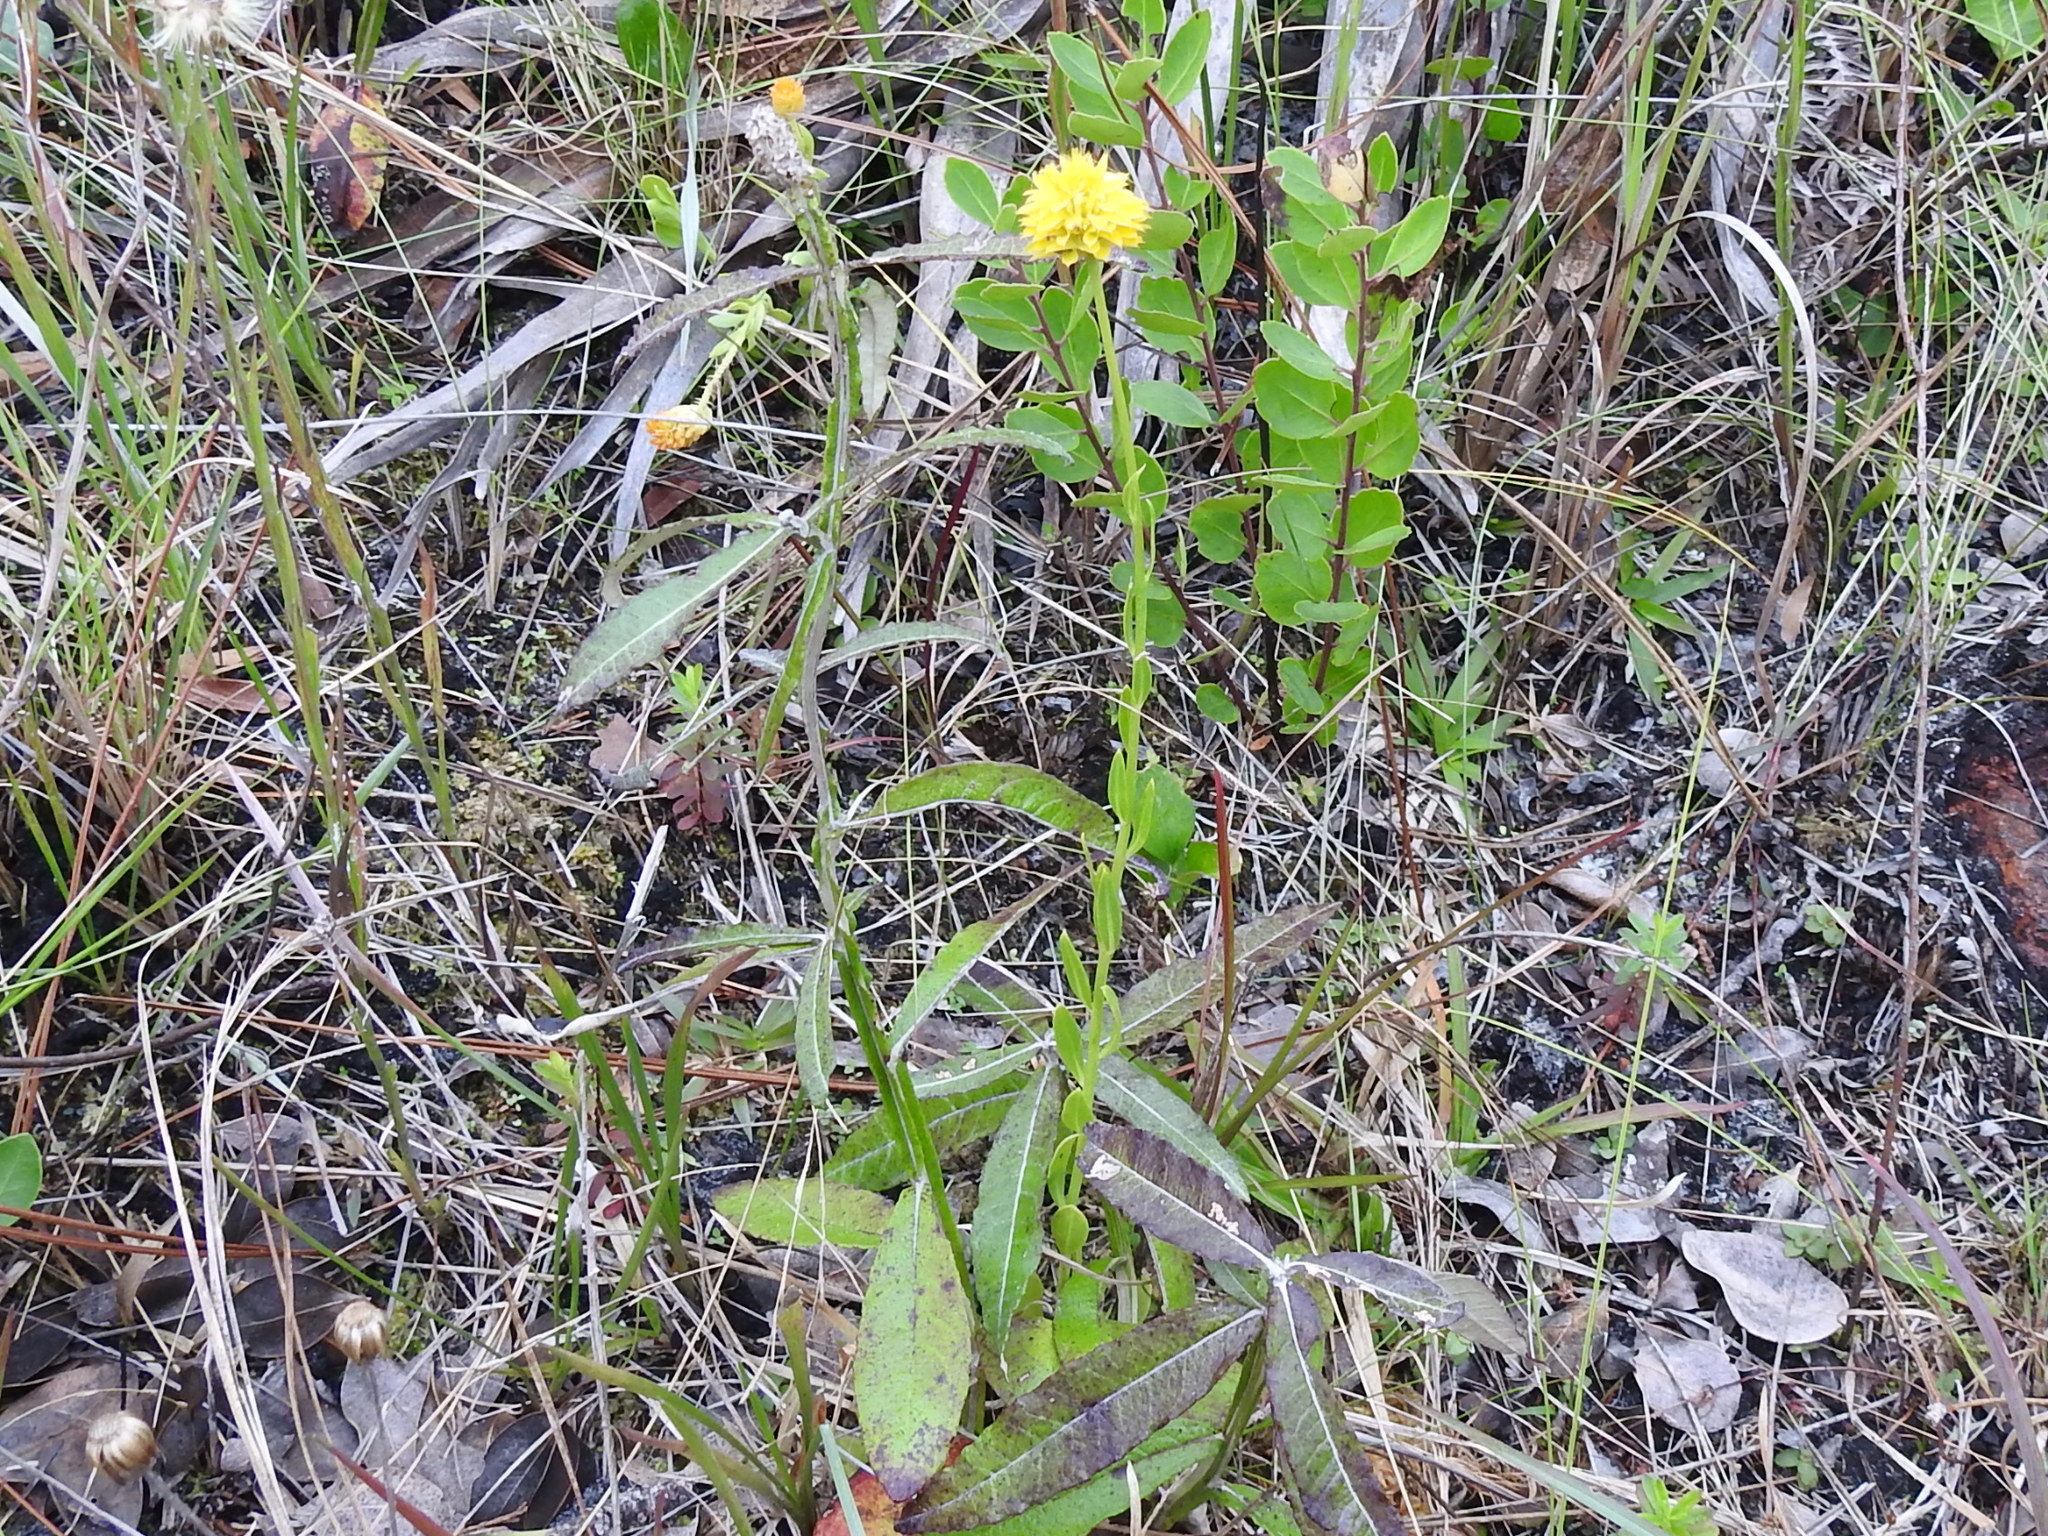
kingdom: Plantae
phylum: Tracheophyta
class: Magnoliopsida
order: Fabales
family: Polygalaceae
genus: Polygala
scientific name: Polygala rugelii
